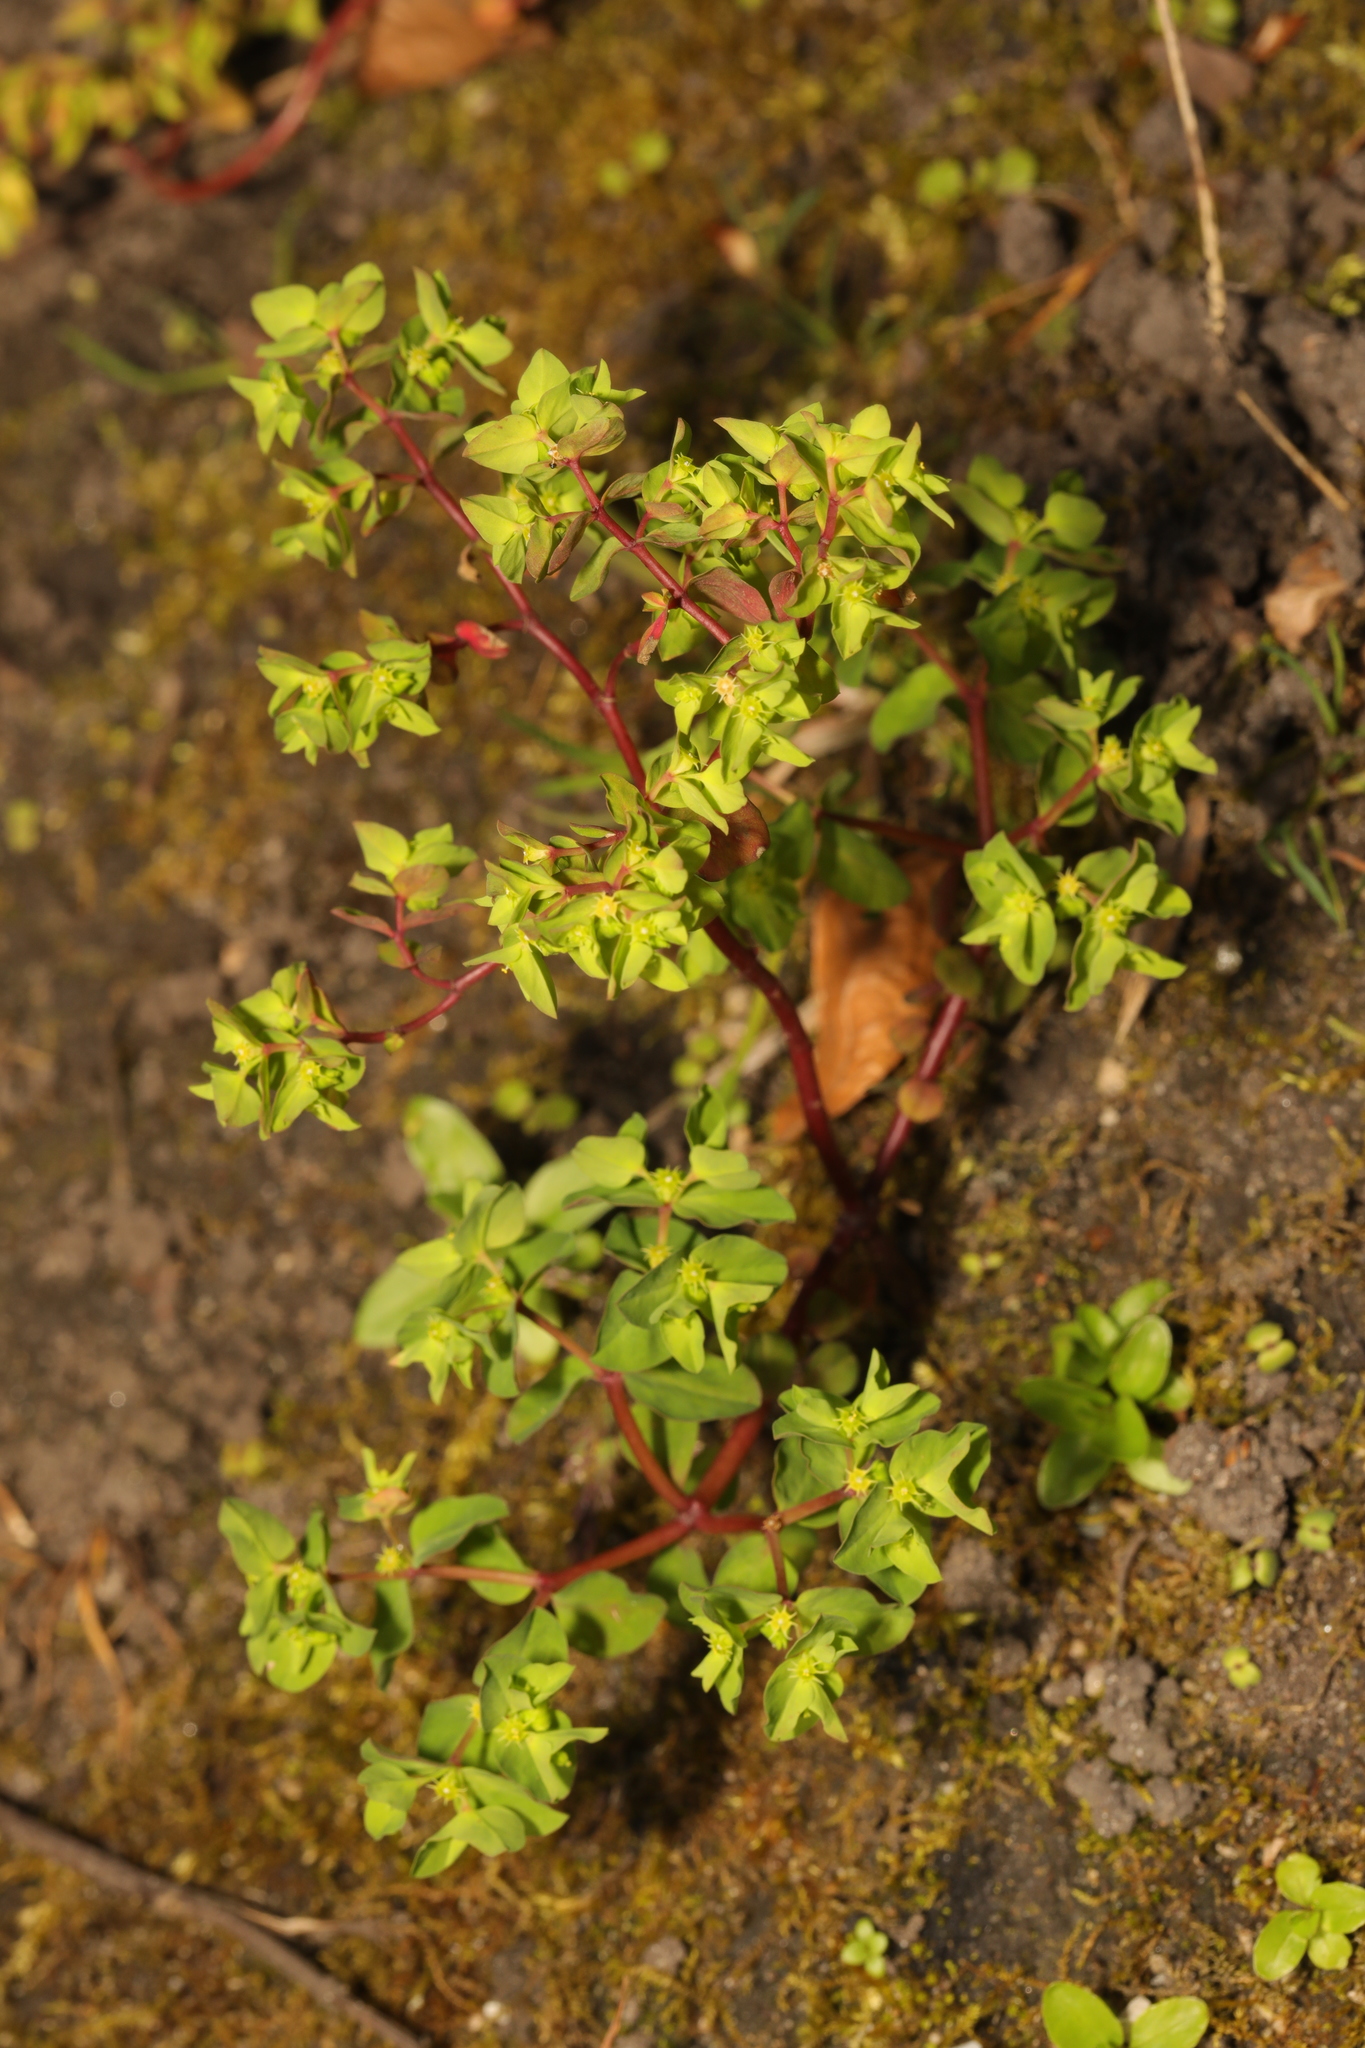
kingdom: Plantae
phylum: Tracheophyta
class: Magnoliopsida
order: Malpighiales
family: Euphorbiaceae
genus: Euphorbia
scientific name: Euphorbia peplus
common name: Petty spurge
